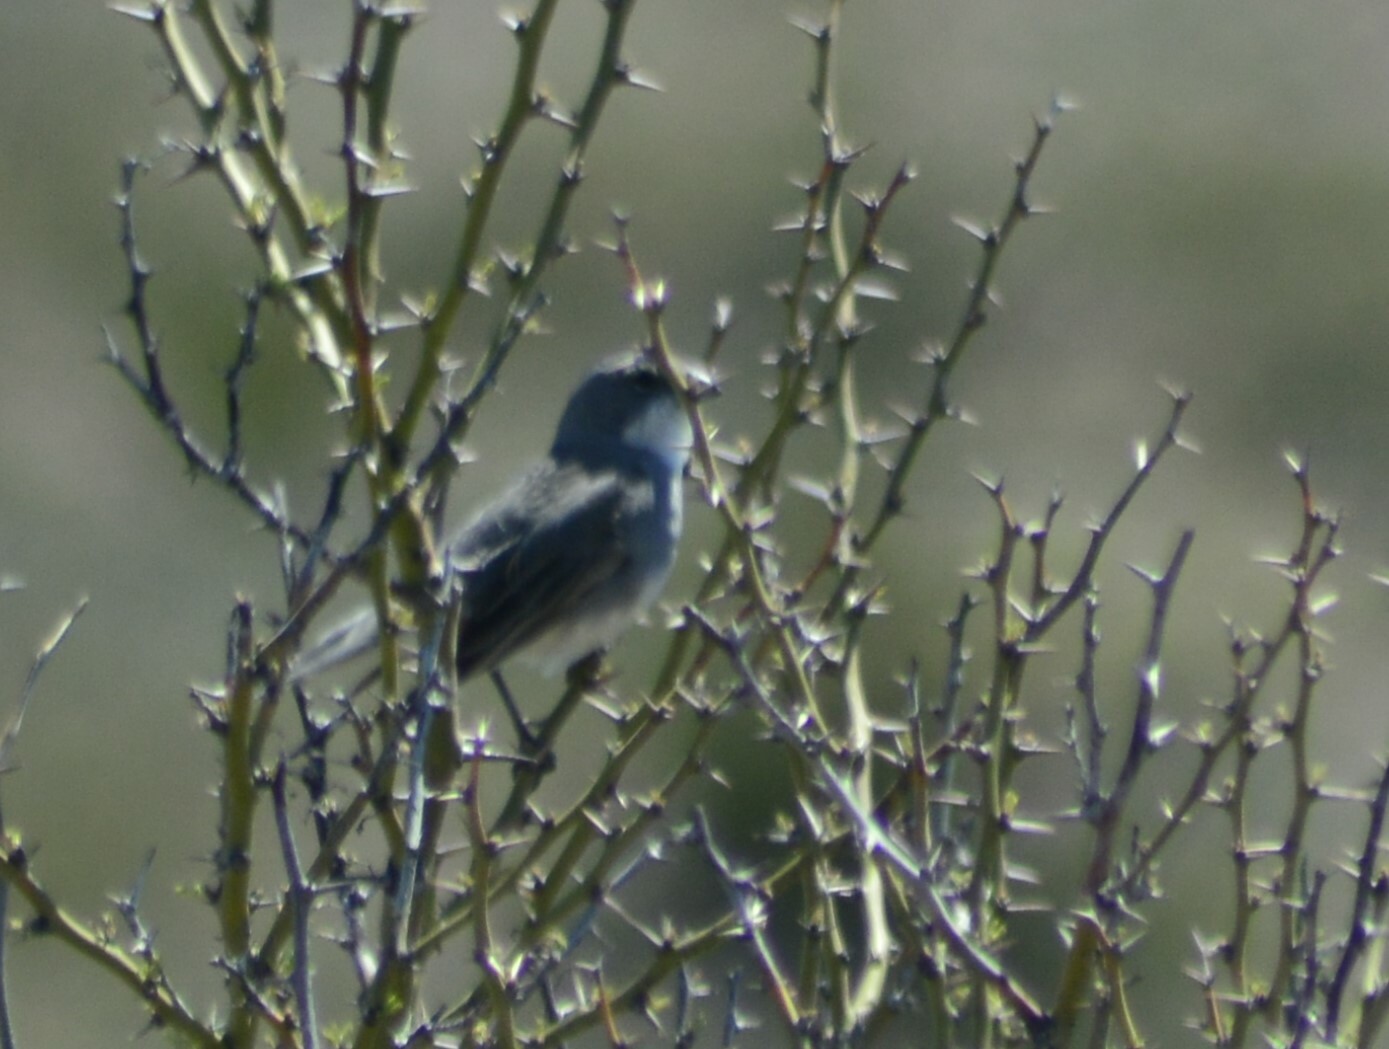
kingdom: Animalia
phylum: Chordata
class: Aves
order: Passeriformes
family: Thraupidae
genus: Diuca
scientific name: Diuca diuca
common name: Common diuca finch
